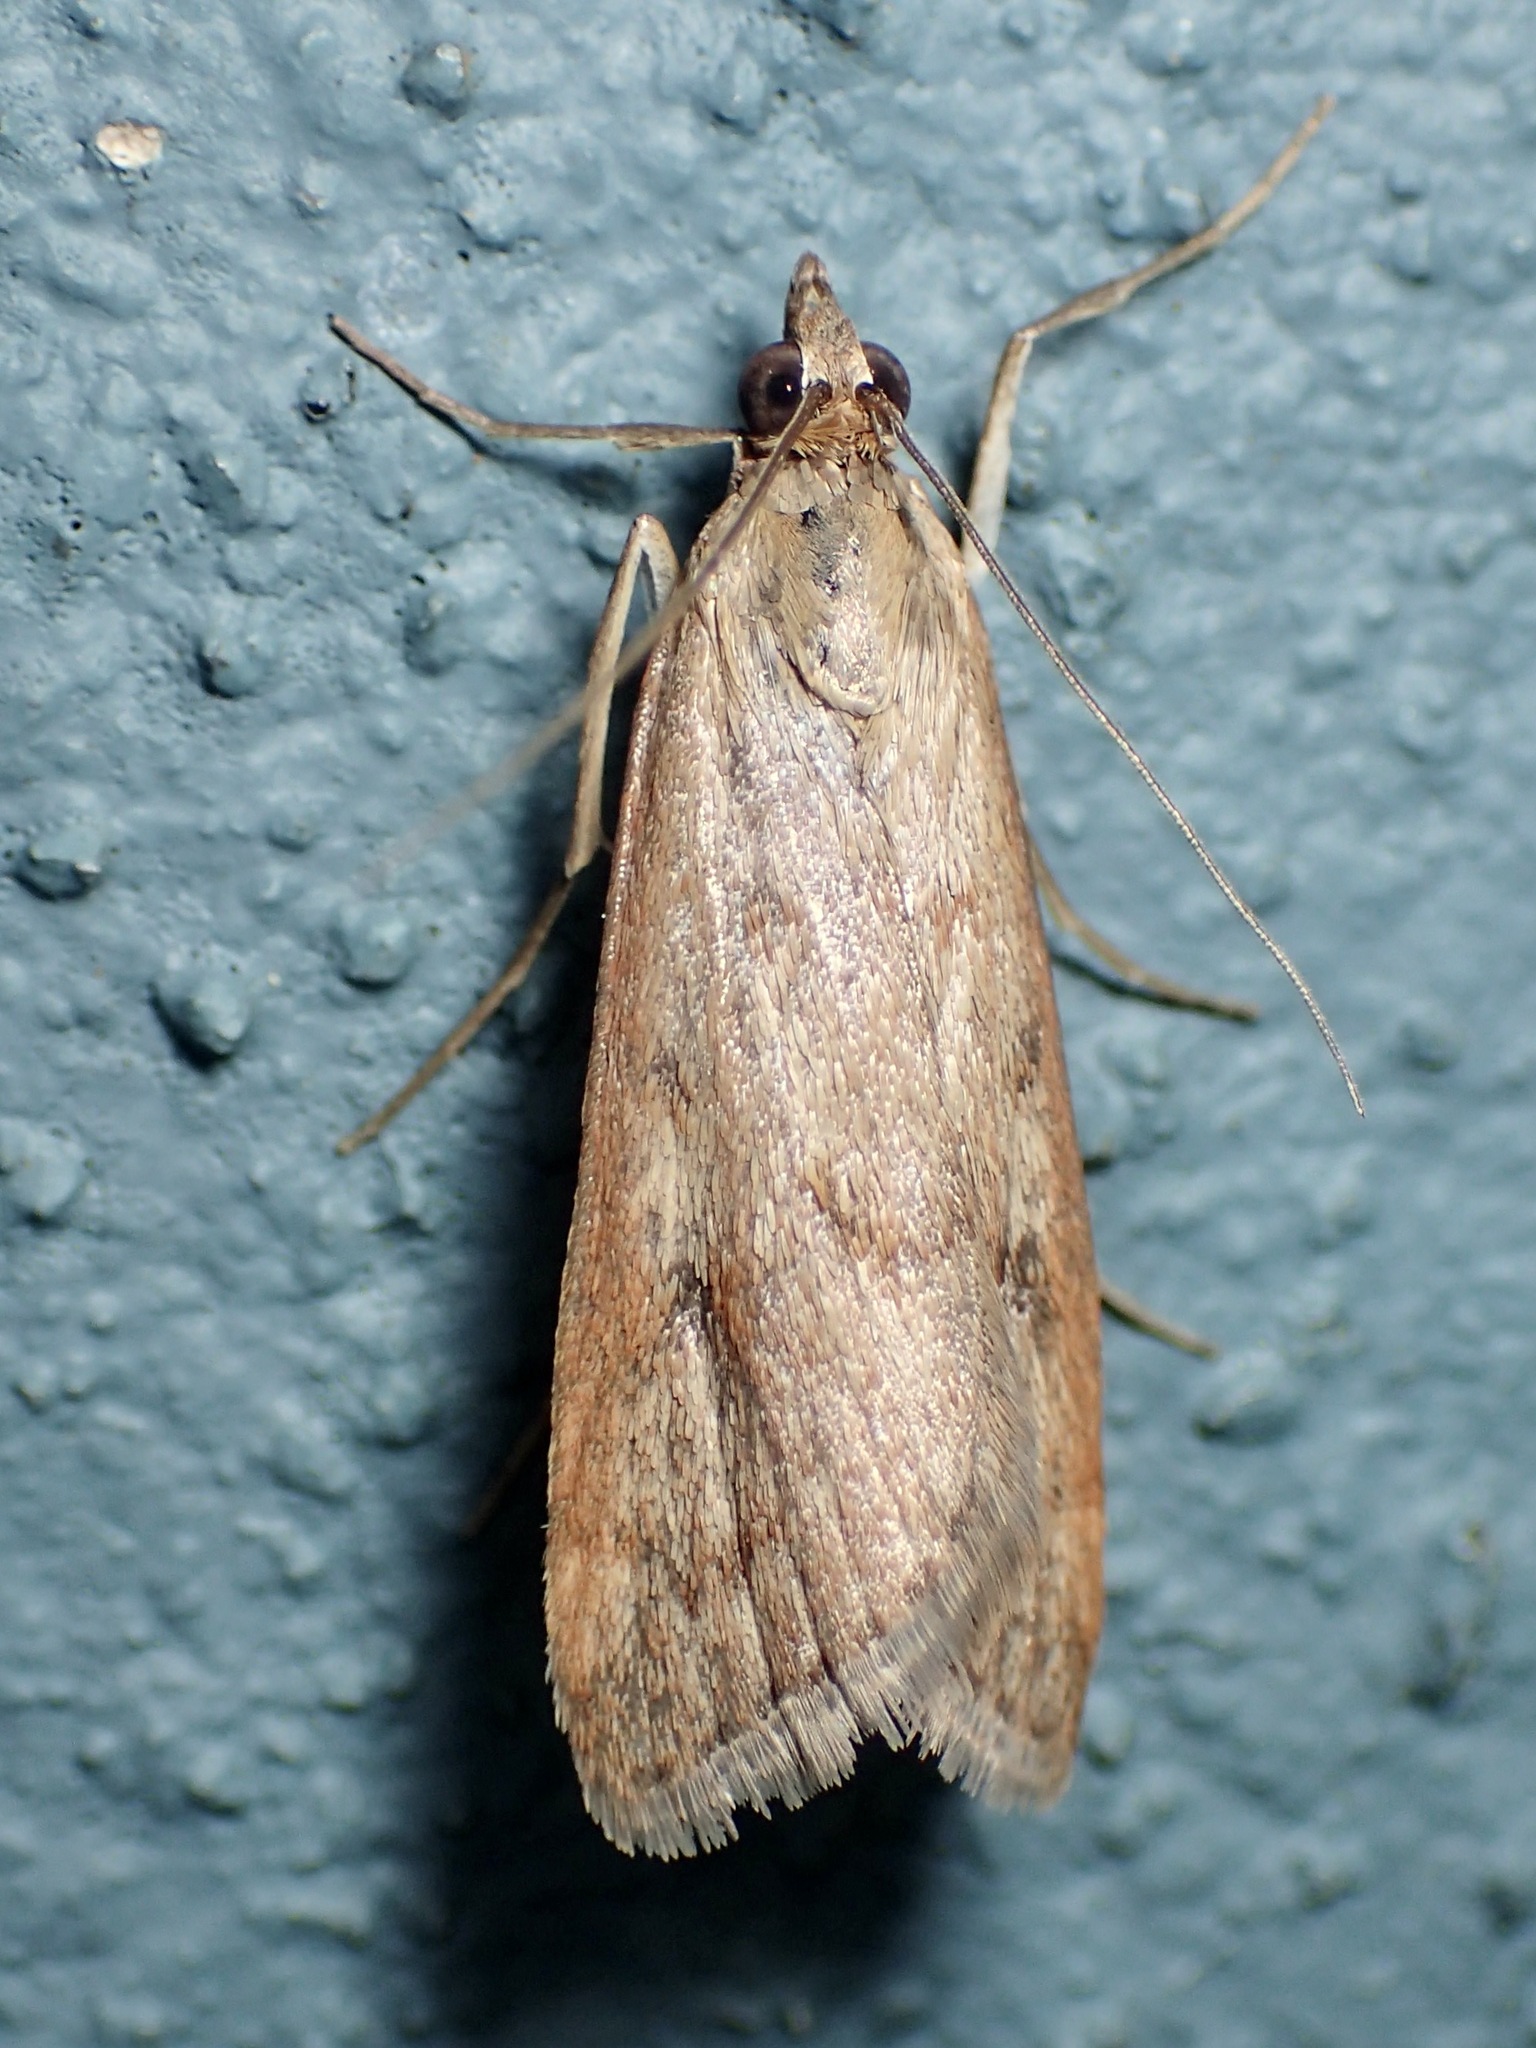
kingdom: Animalia
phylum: Arthropoda
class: Insecta
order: Lepidoptera
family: Crambidae
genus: Achyra
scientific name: Achyra affinitalis
